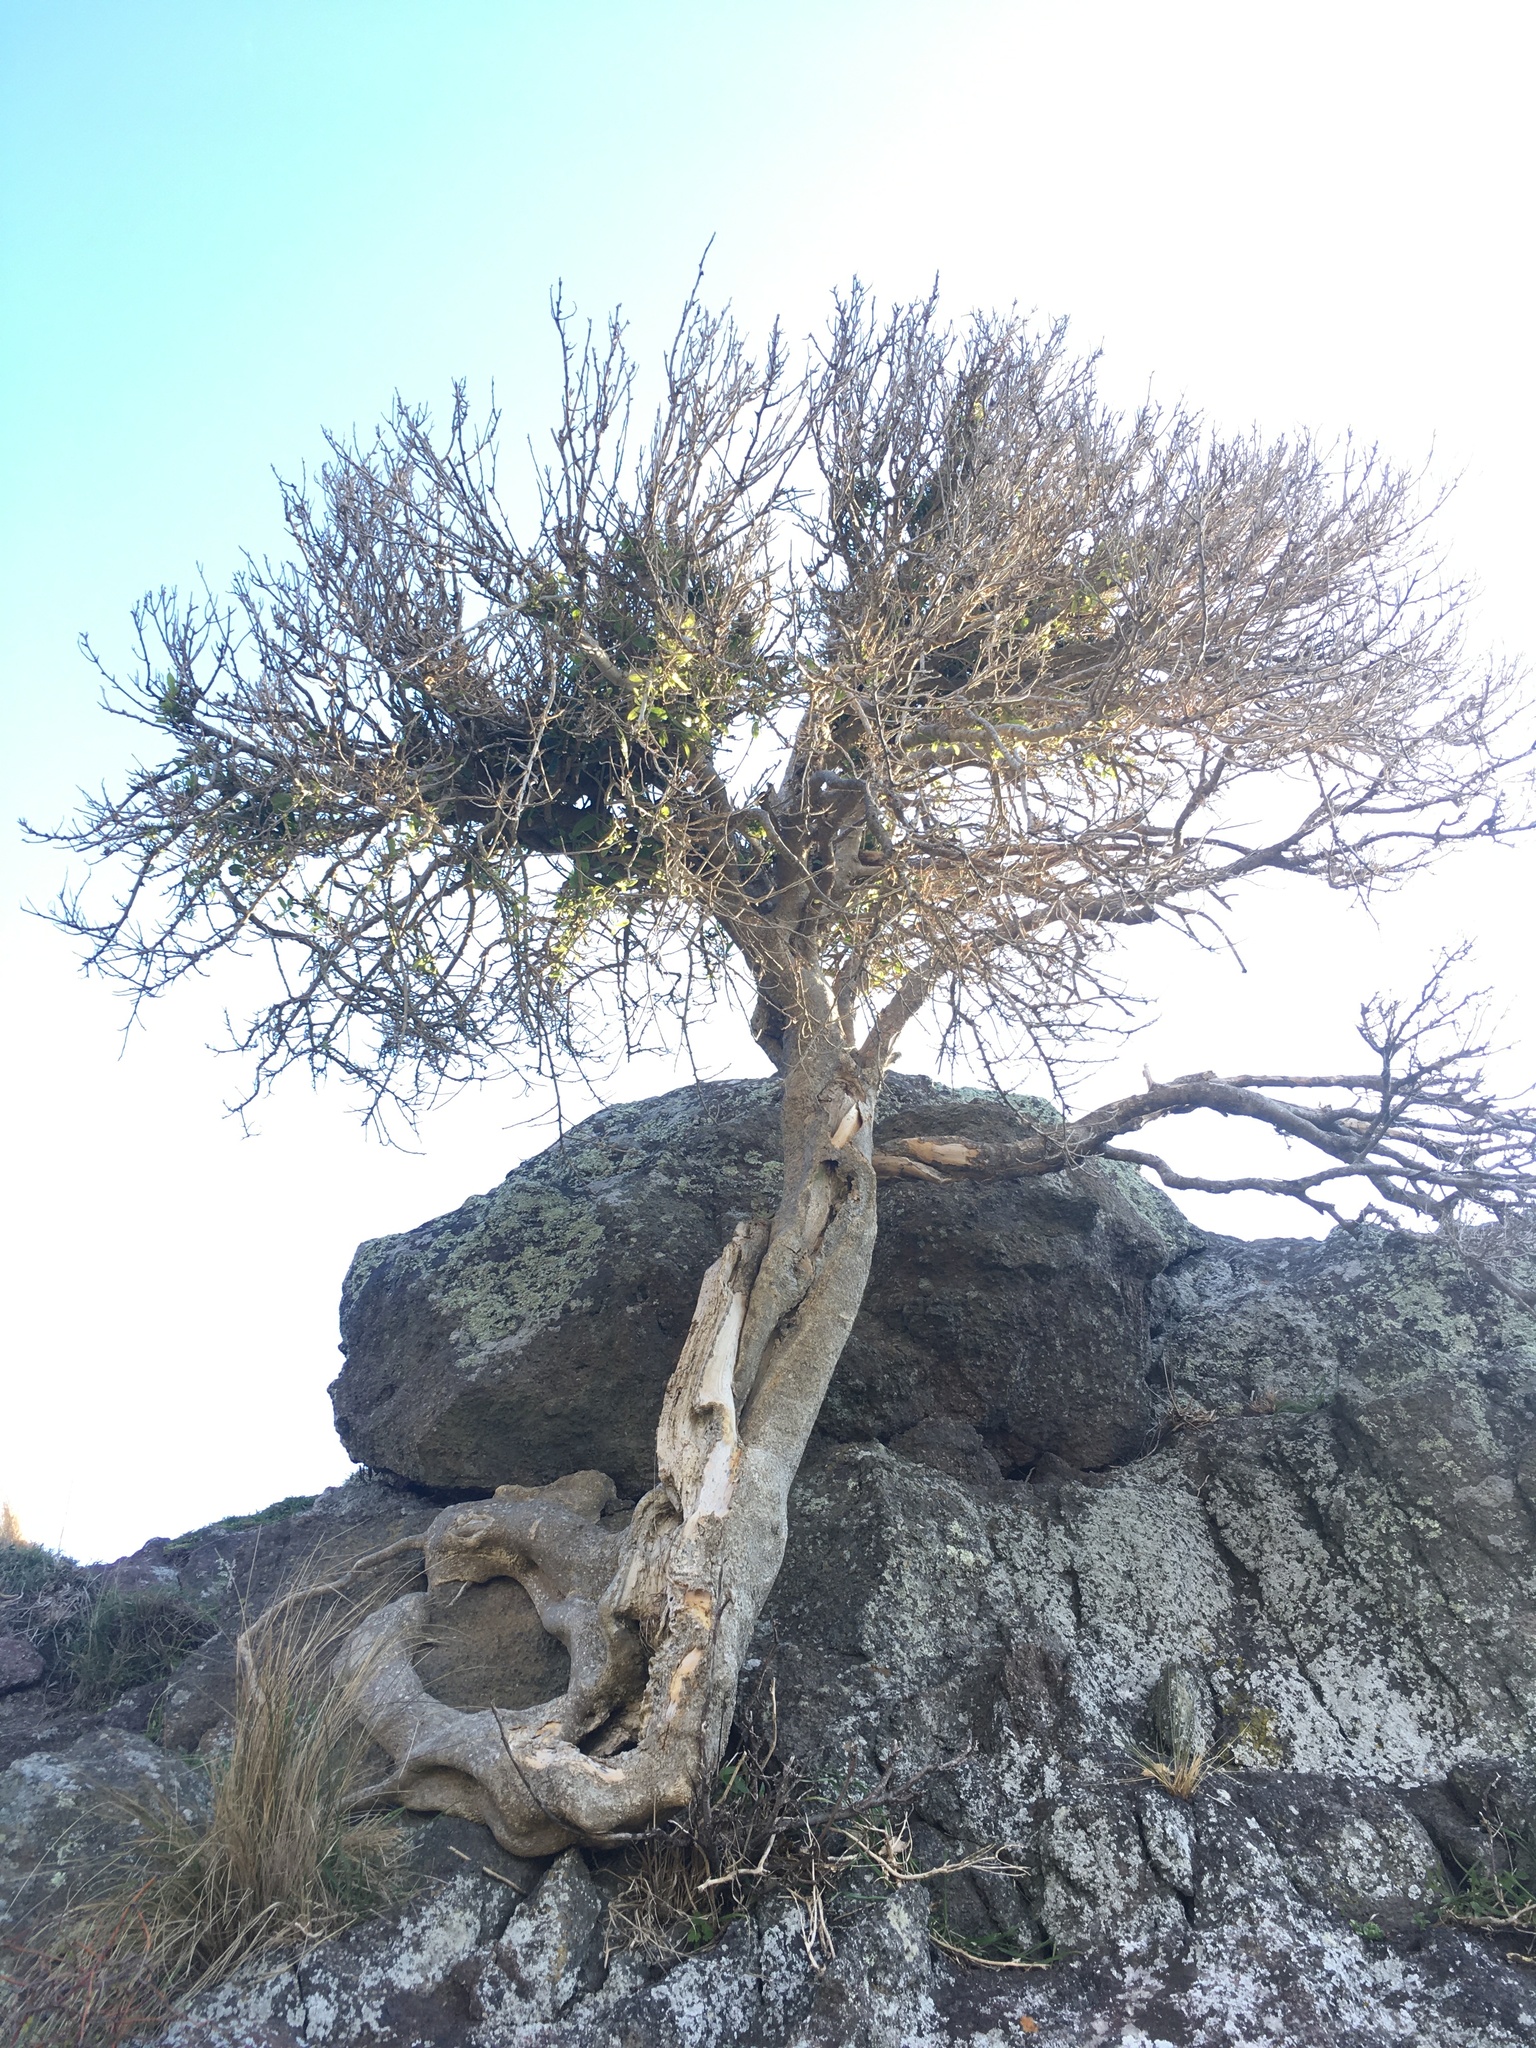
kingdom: Plantae
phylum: Tracheophyta
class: Magnoliopsida
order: Malpighiales
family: Violaceae
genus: Melicytus
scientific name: Melicytus ramiflorus
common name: Mahoe
